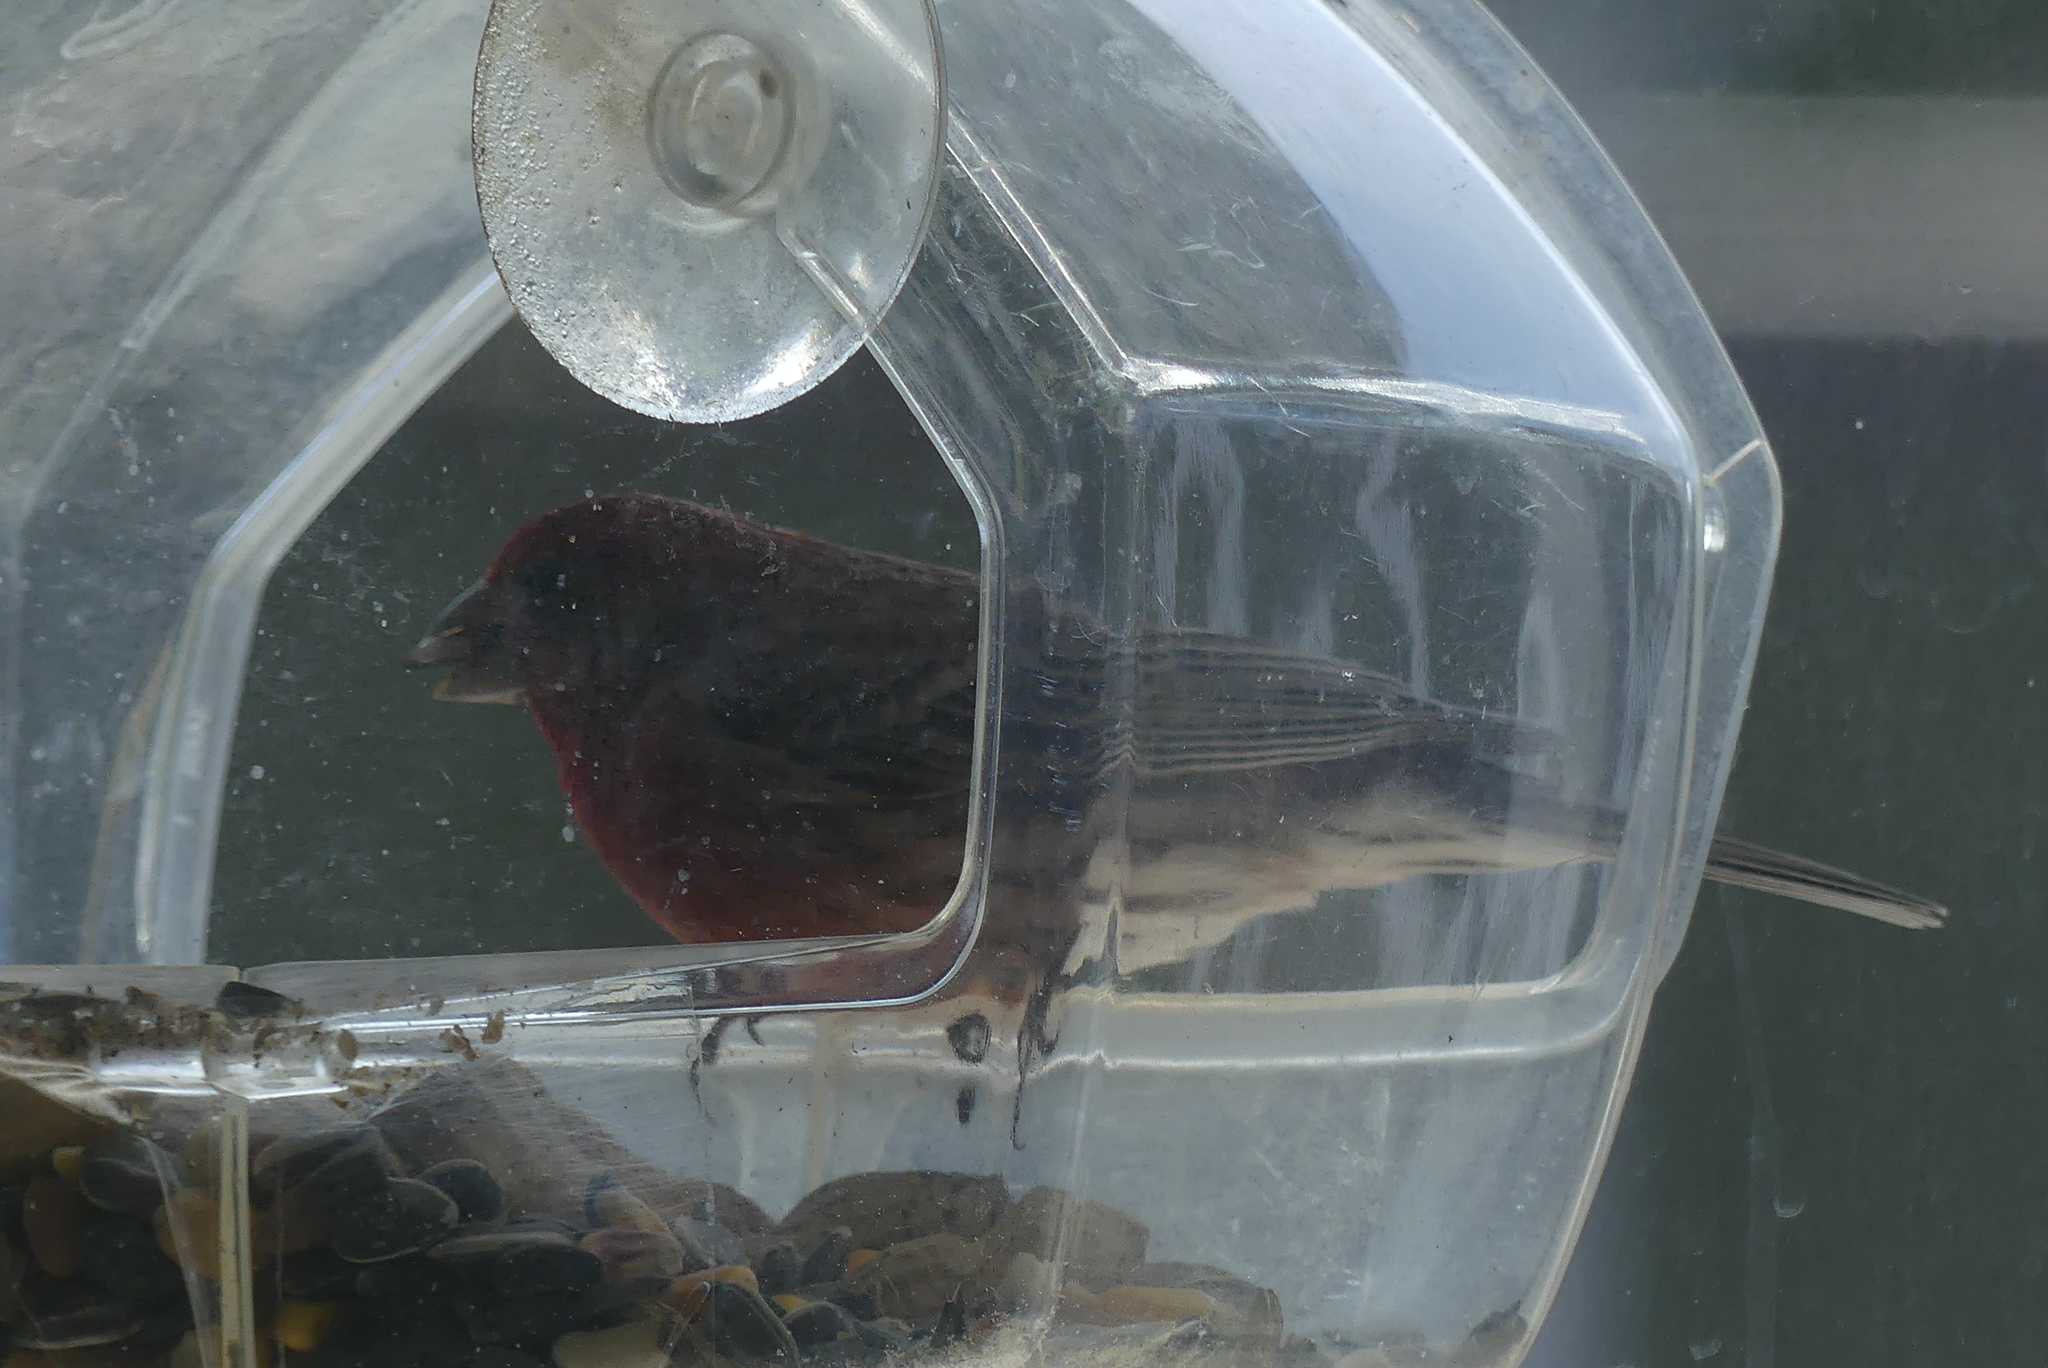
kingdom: Animalia
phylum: Chordata
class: Aves
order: Passeriformes
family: Fringillidae
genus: Haemorhous
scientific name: Haemorhous mexicanus
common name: House finch
